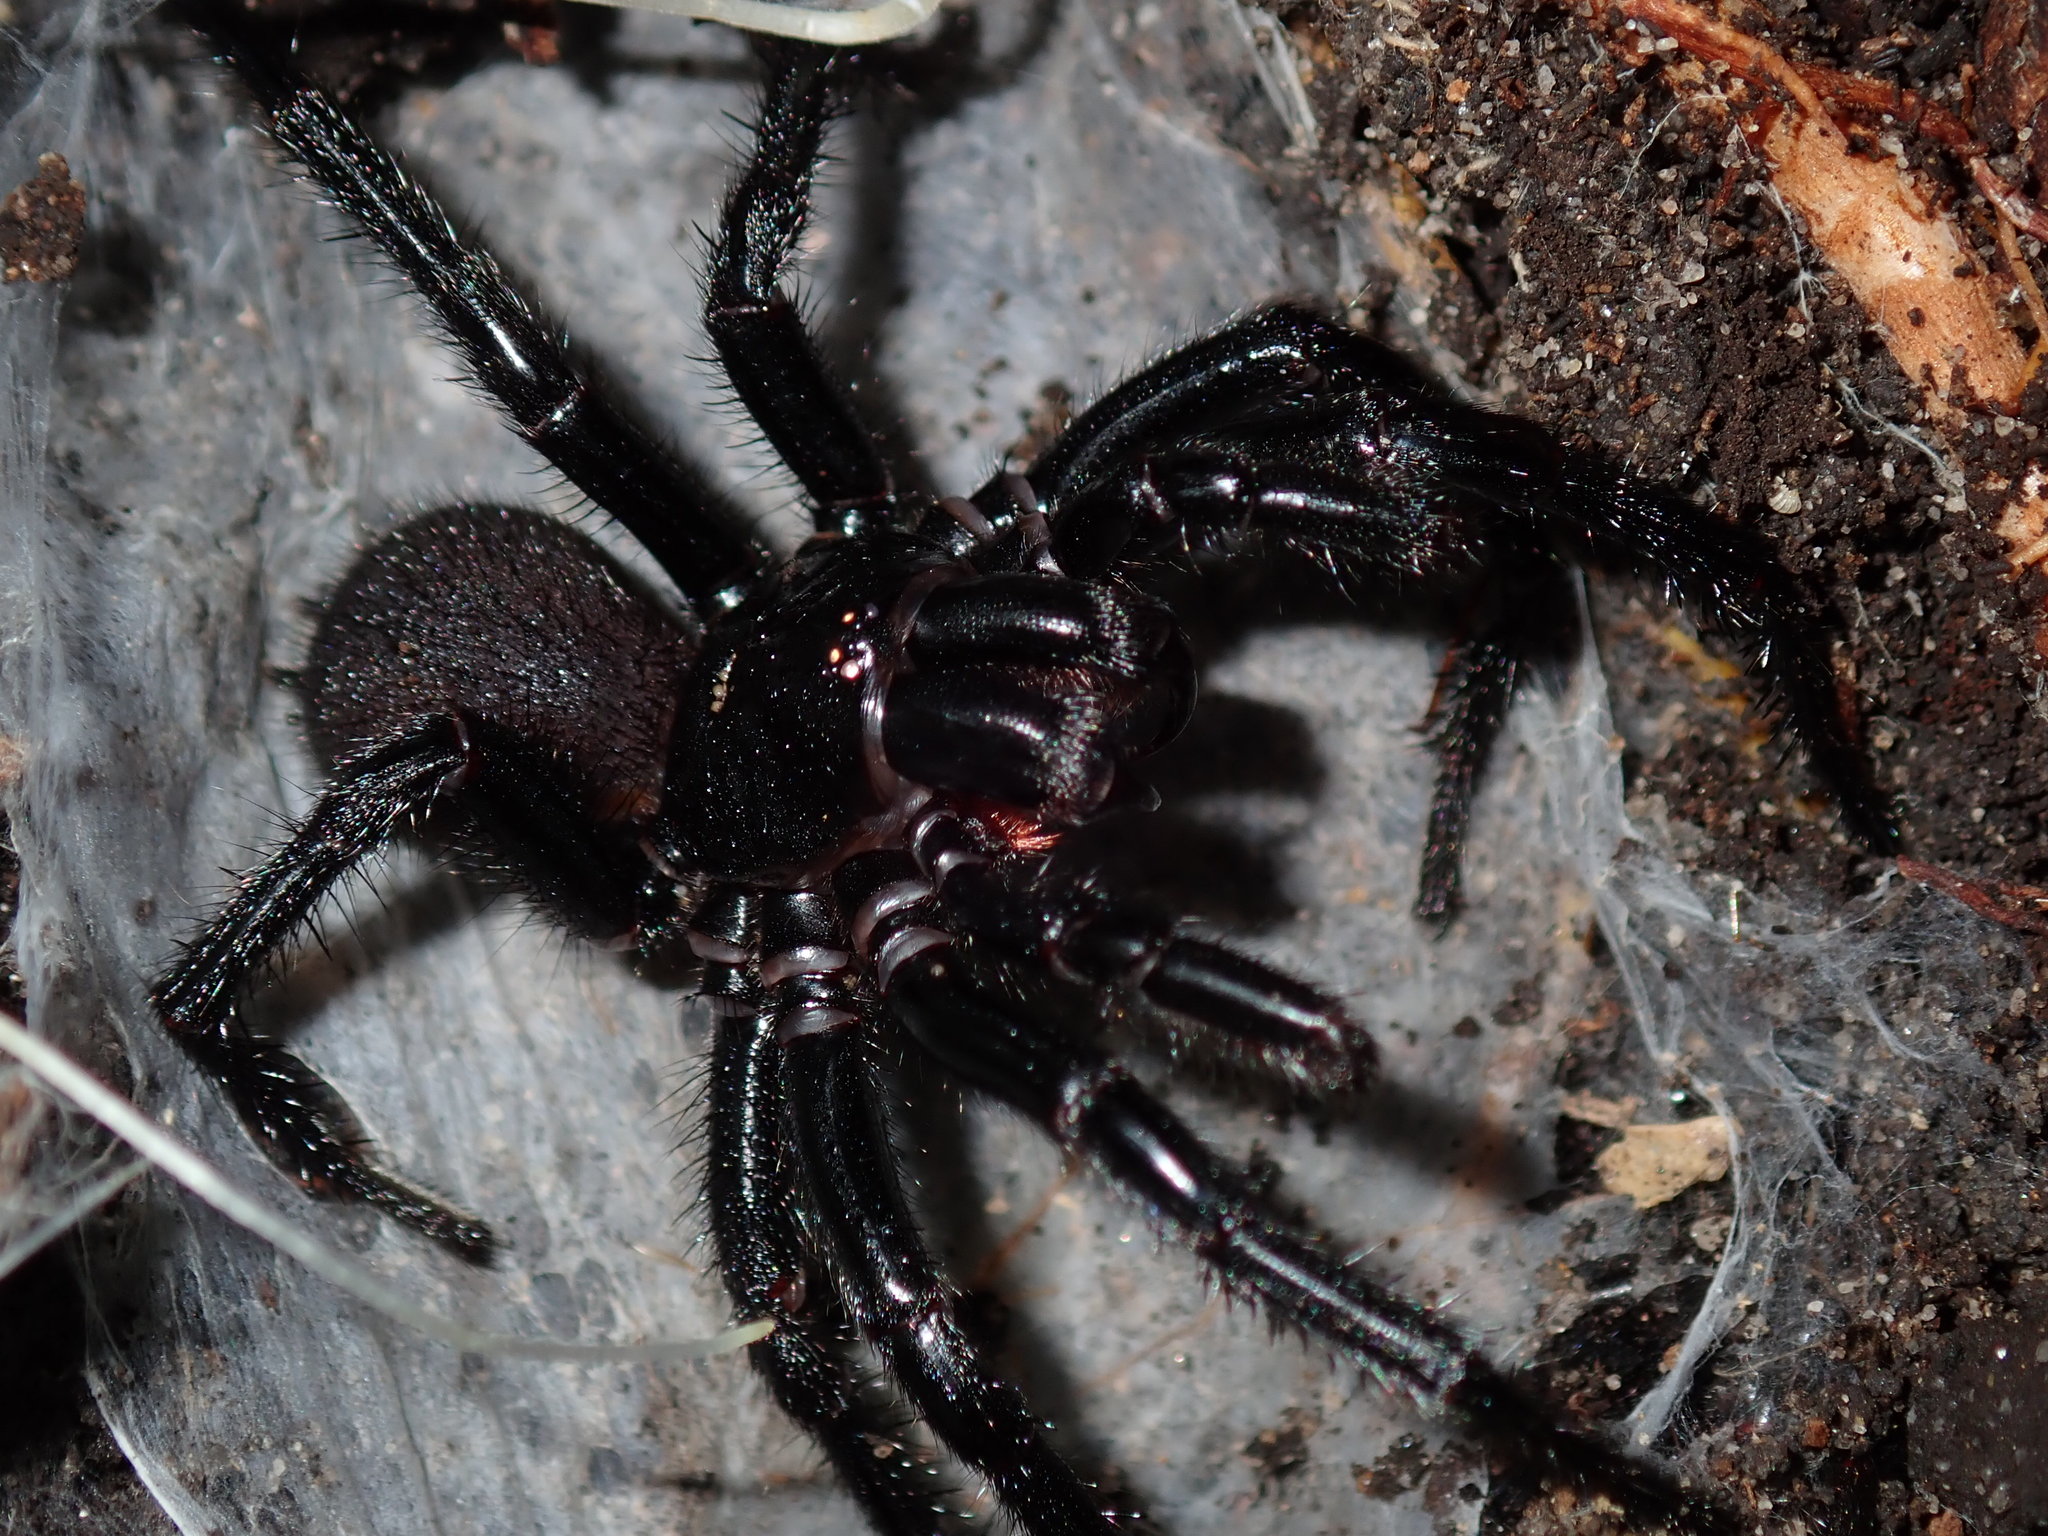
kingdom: Animalia
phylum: Arthropoda
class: Arachnida
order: Araneae
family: Atracidae
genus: Atrax
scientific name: Atrax robustus
